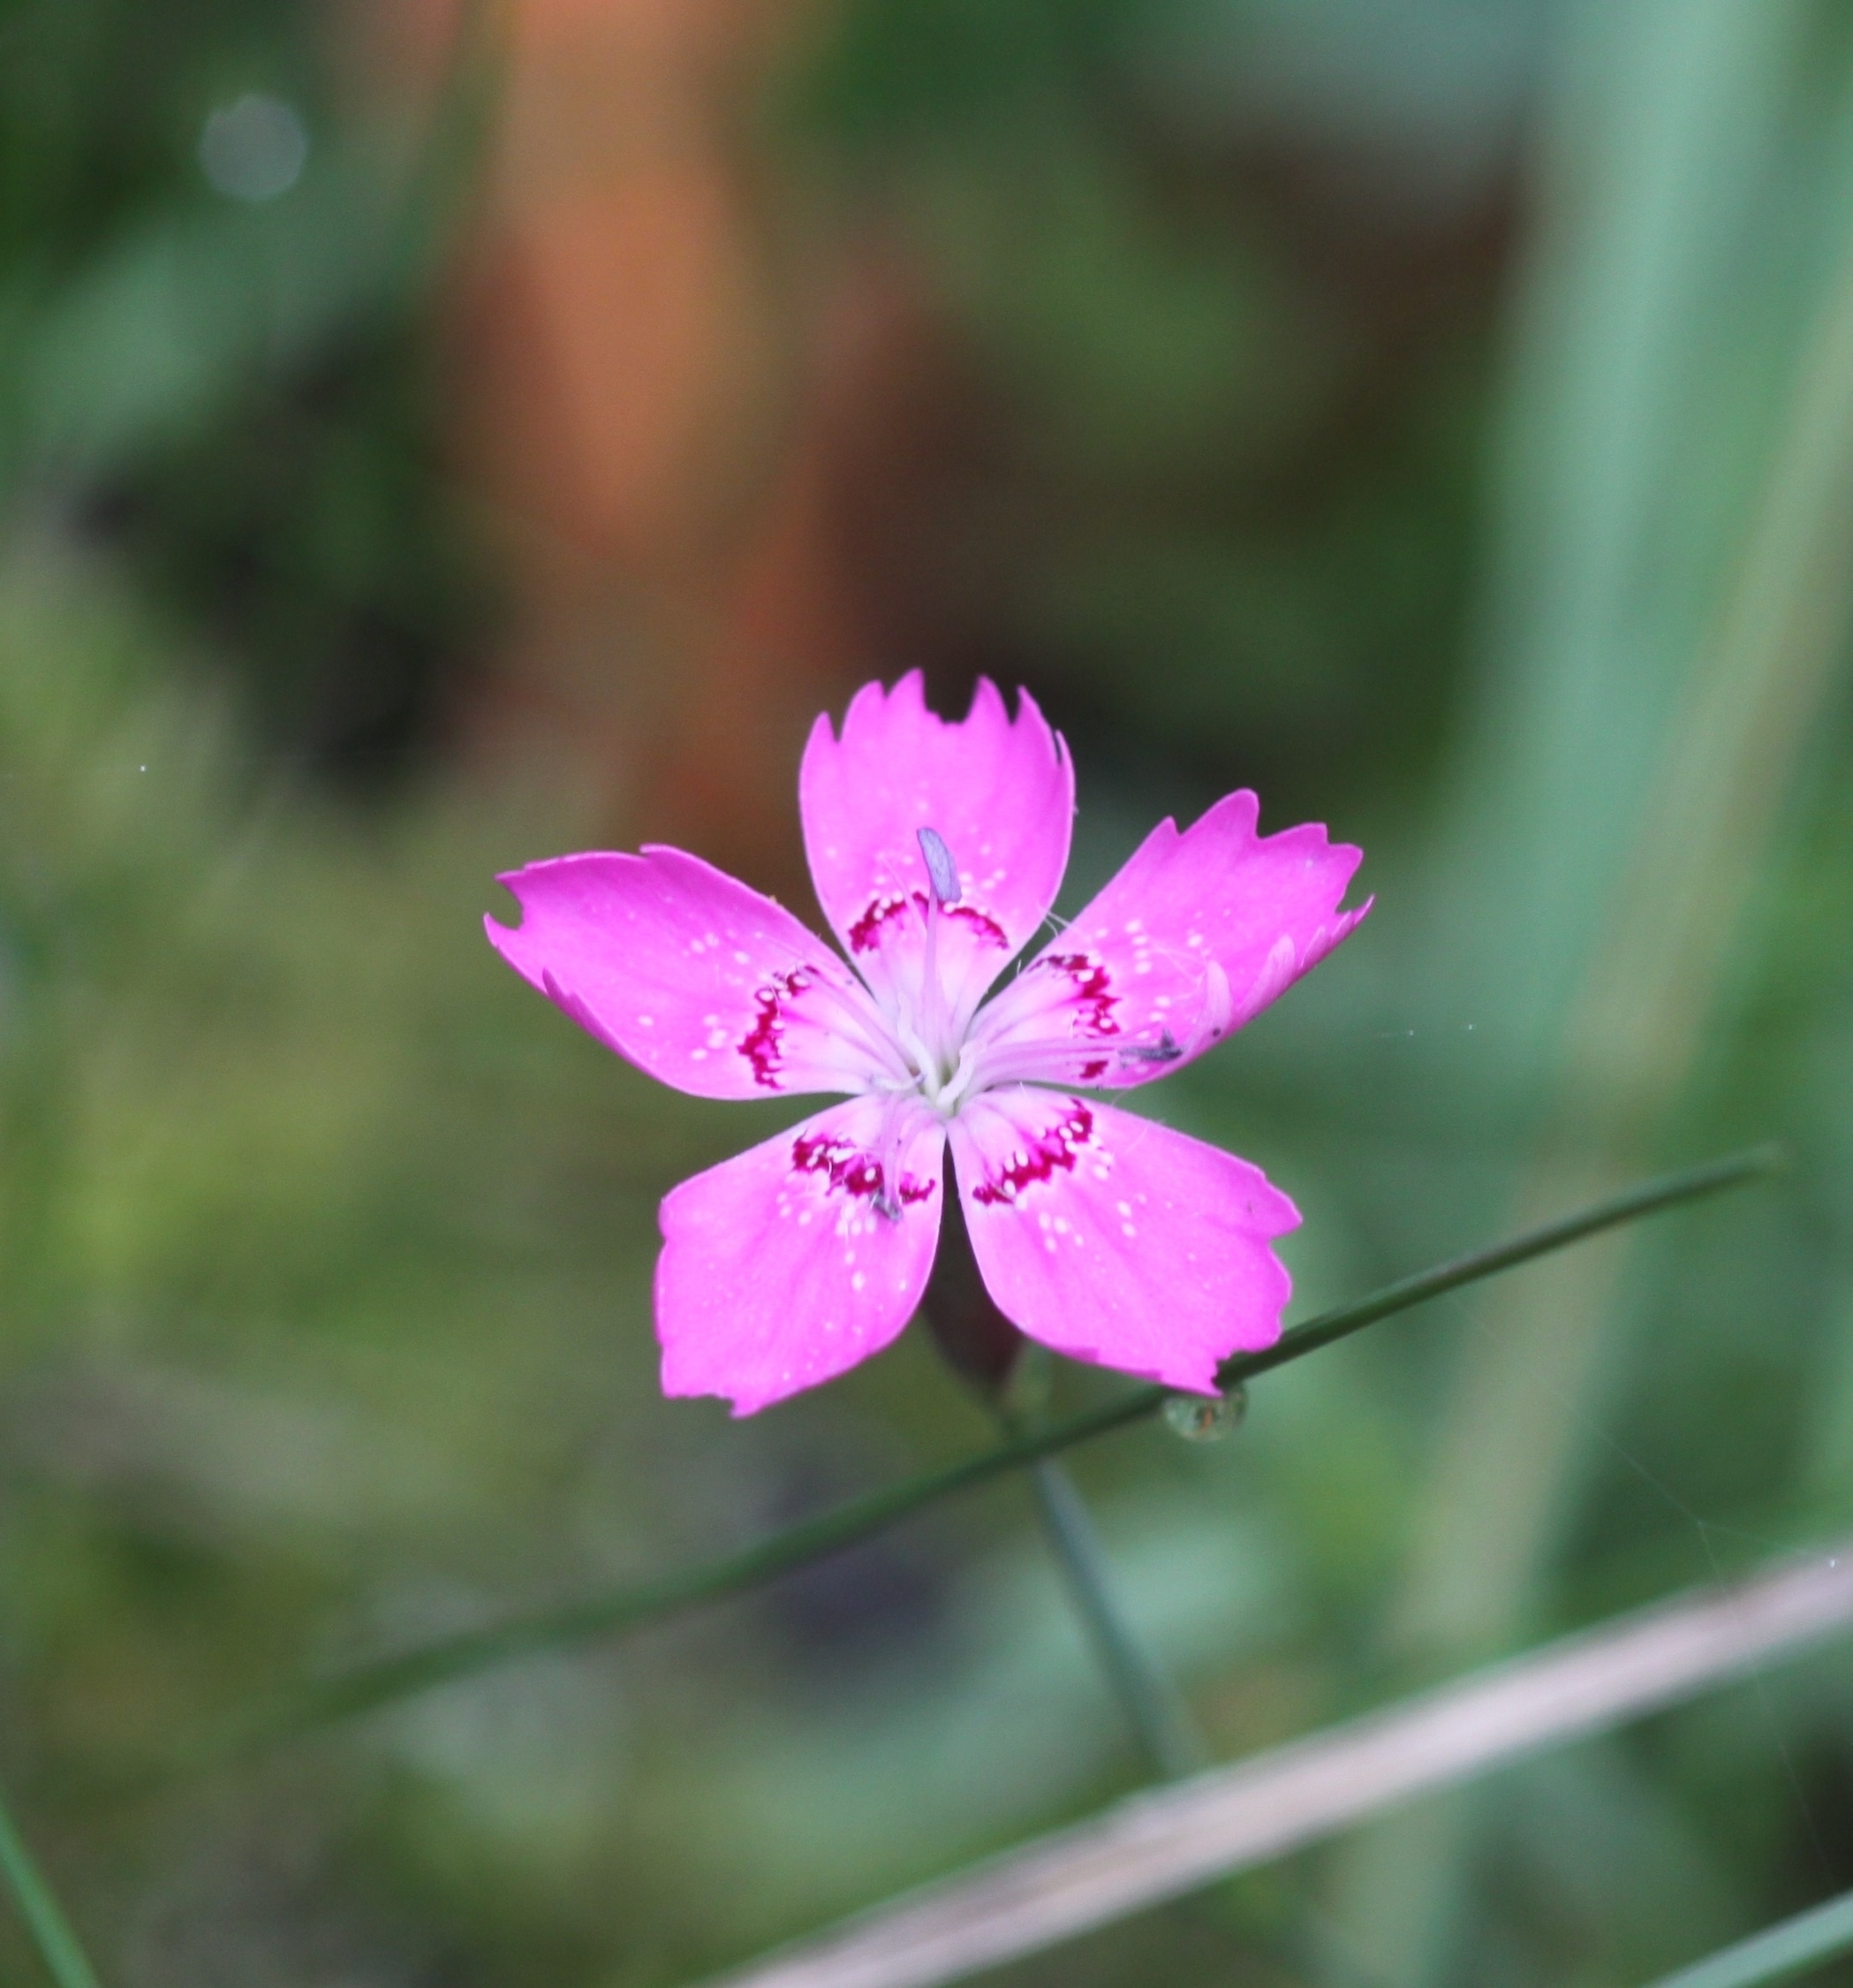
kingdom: Plantae
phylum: Tracheophyta
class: Magnoliopsida
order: Caryophyllales
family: Caryophyllaceae
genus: Dianthus
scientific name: Dianthus deltoides
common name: Maiden pink
